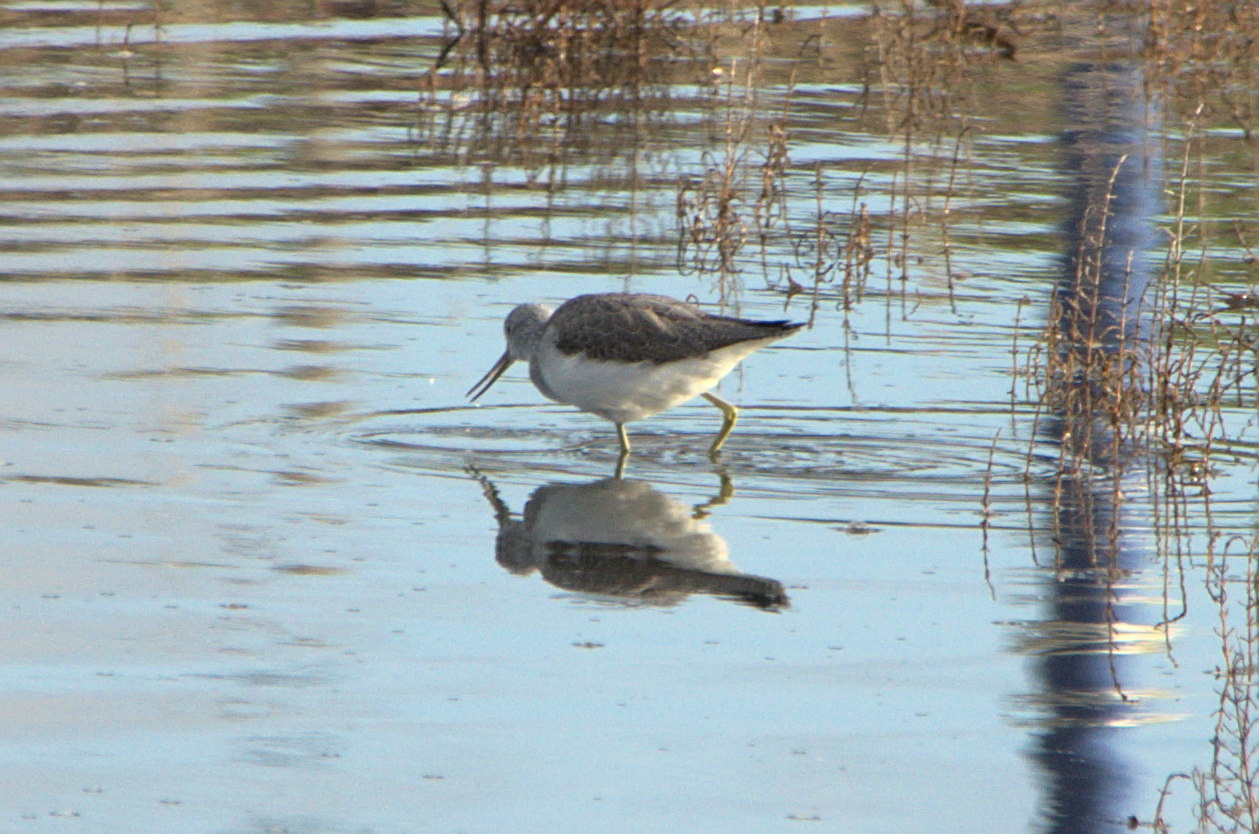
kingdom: Animalia
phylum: Chordata
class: Aves
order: Charadriiformes
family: Scolopacidae
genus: Tringa
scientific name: Tringa nebularia
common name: Common greenshank
